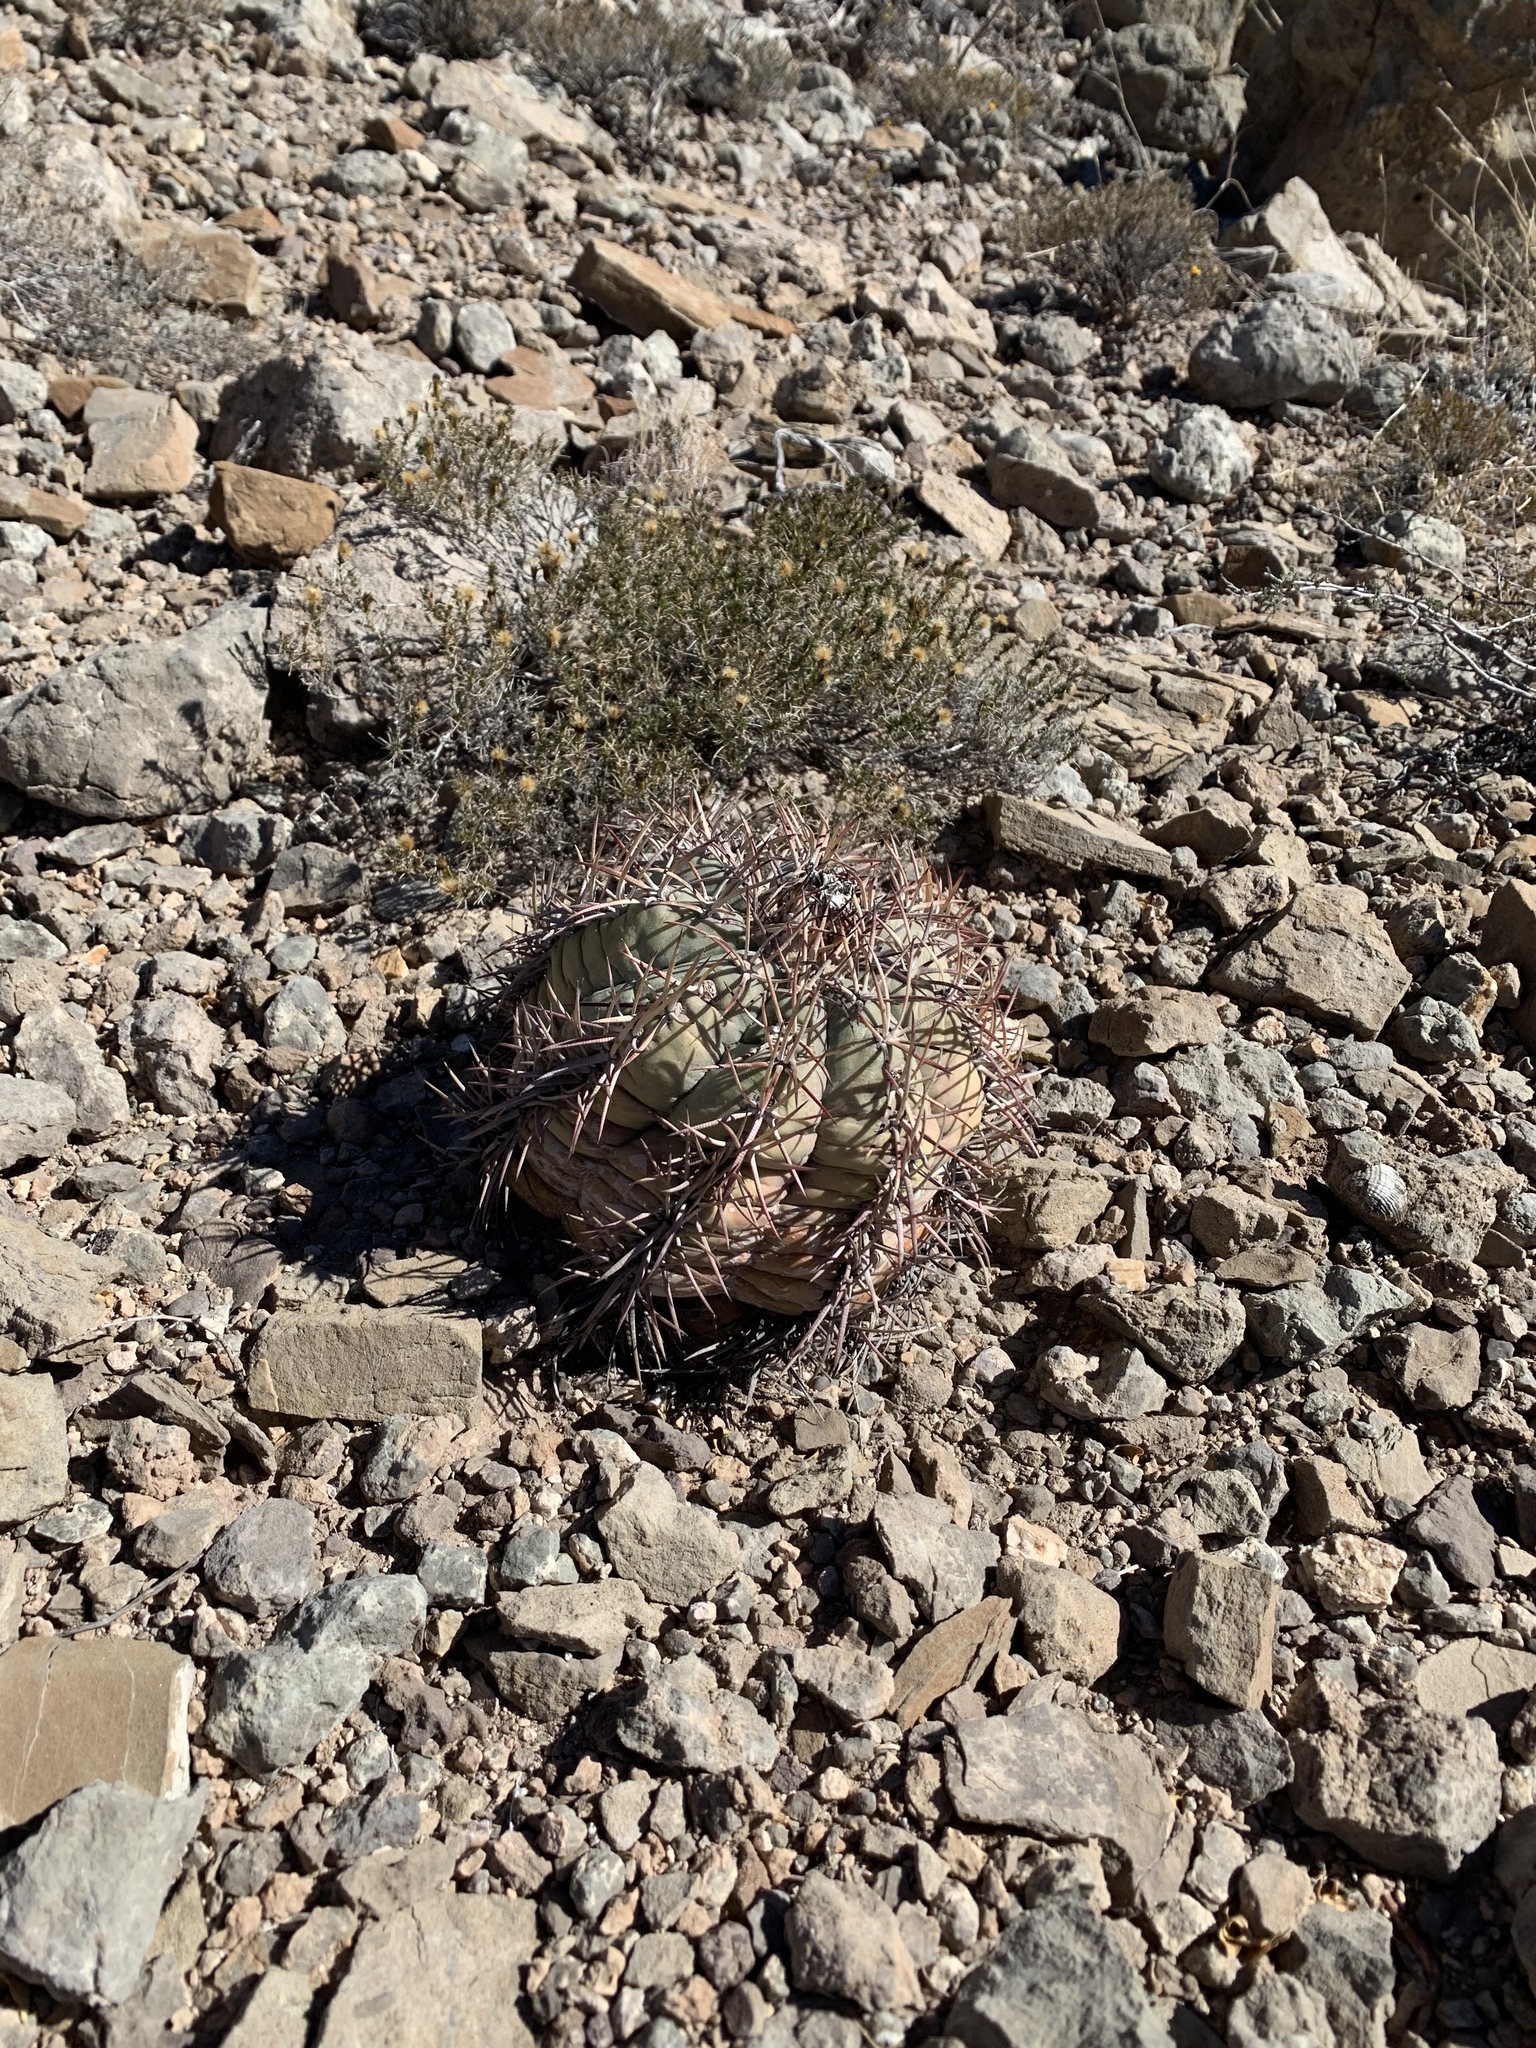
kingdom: Plantae
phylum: Tracheophyta
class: Magnoliopsida
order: Caryophyllales
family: Cactaceae
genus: Echinocactus
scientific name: Echinocactus horizonthalonius
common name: Devilshead
